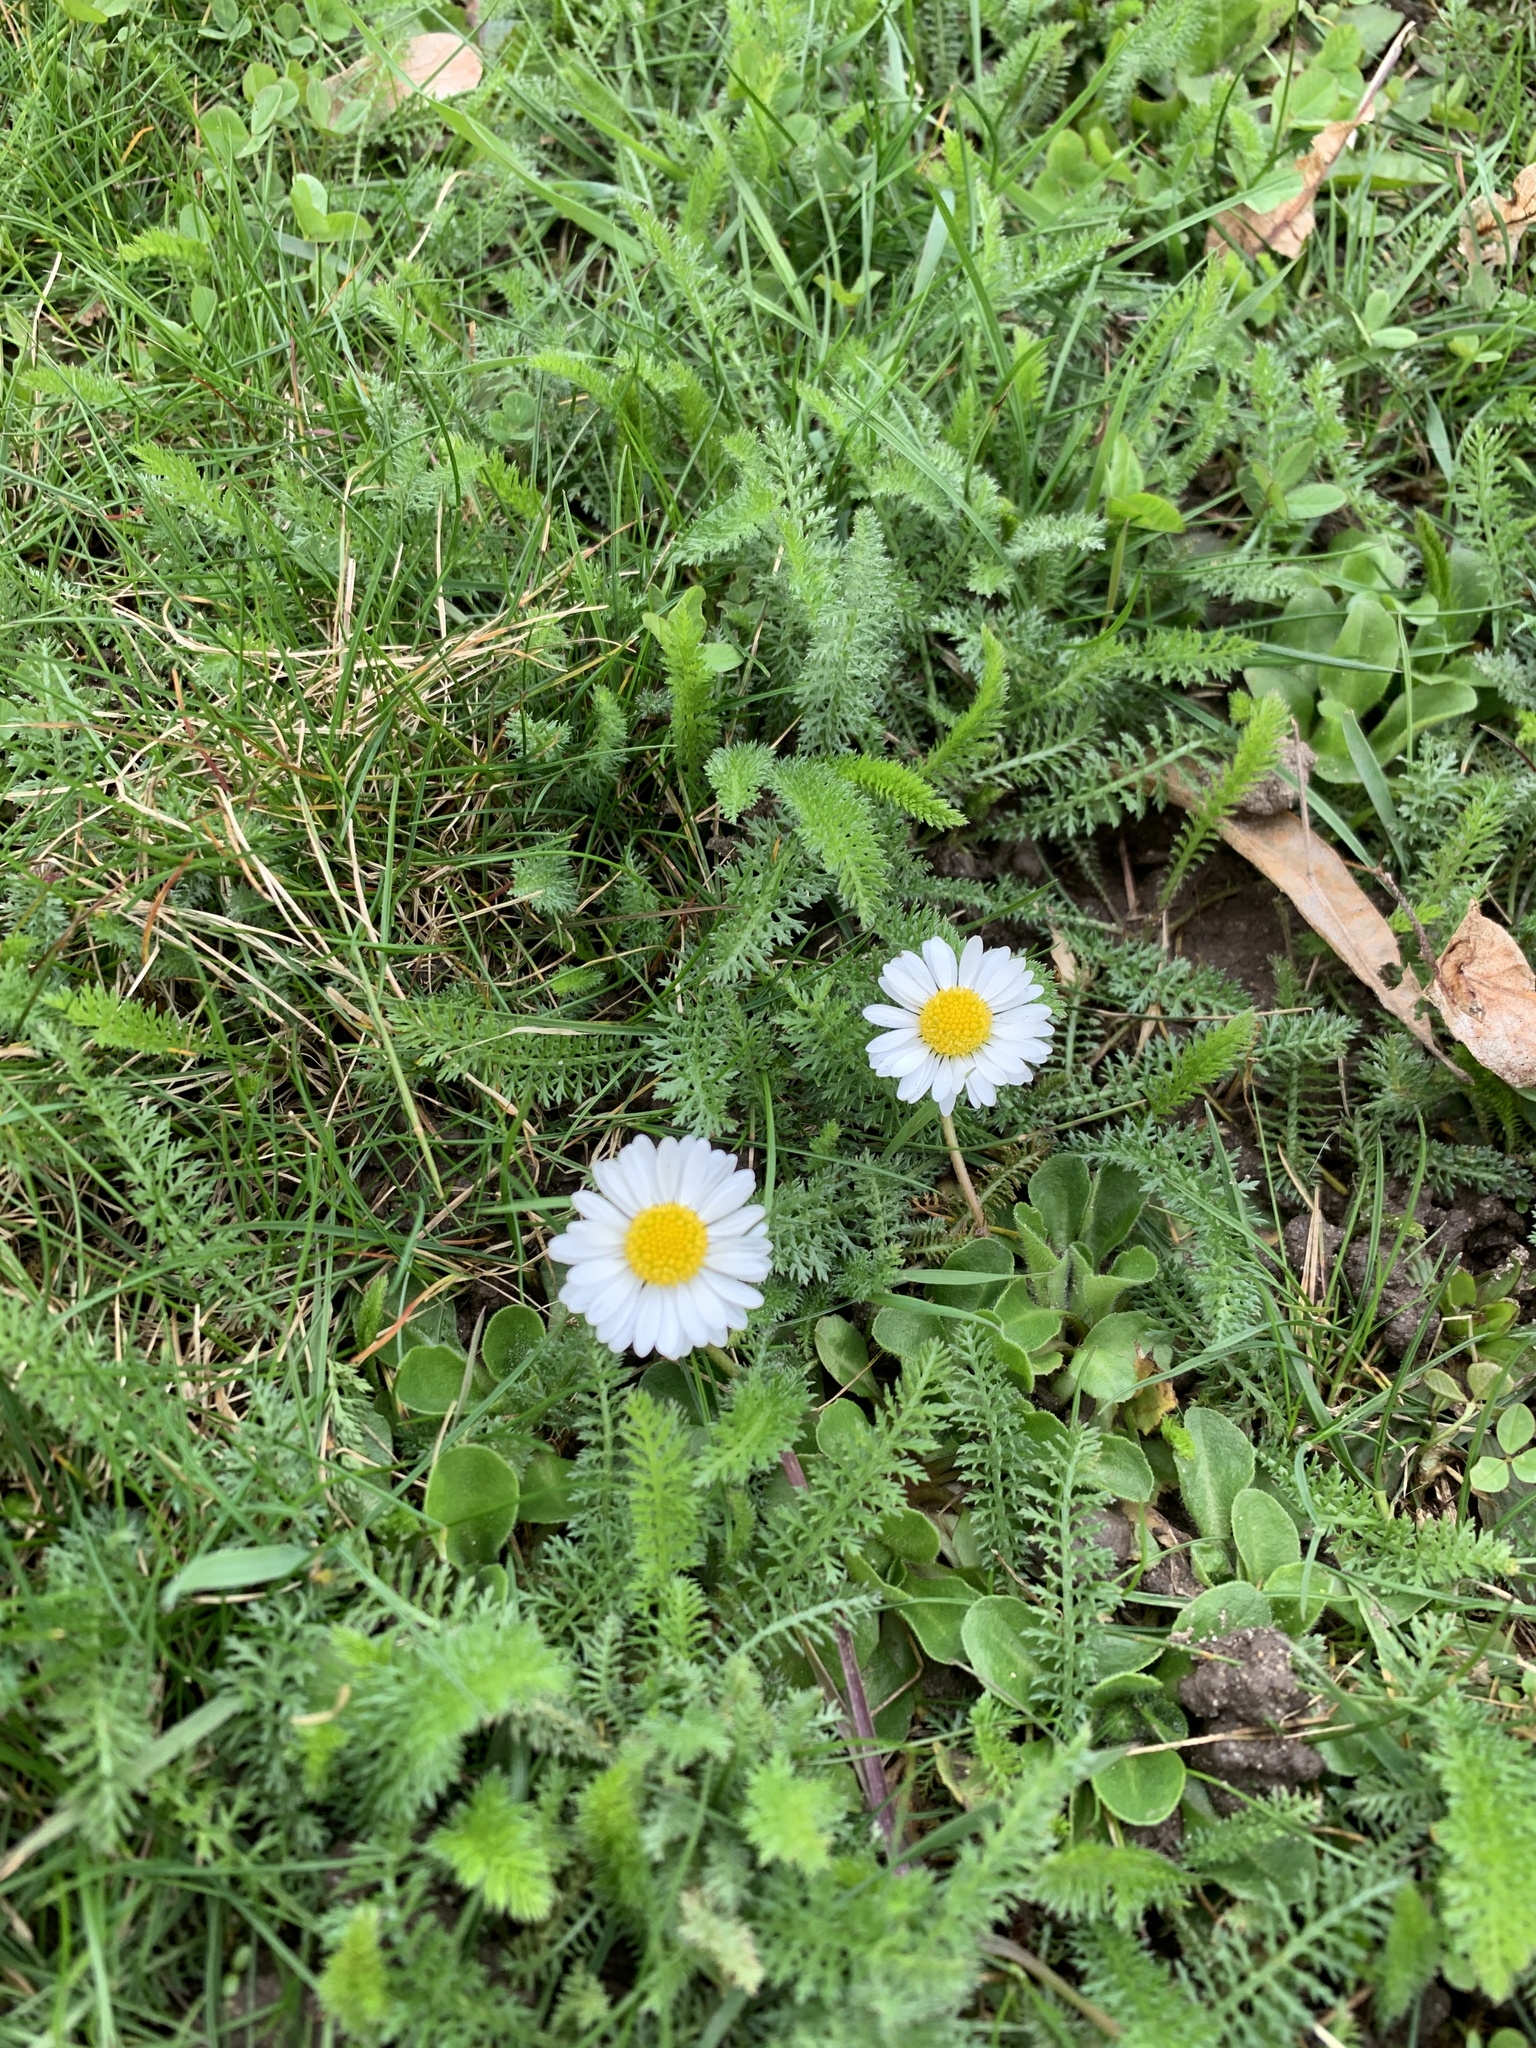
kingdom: Plantae
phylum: Tracheophyta
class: Magnoliopsida
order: Asterales
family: Asteraceae
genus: Bellis
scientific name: Bellis perennis
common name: Lawndaisy
